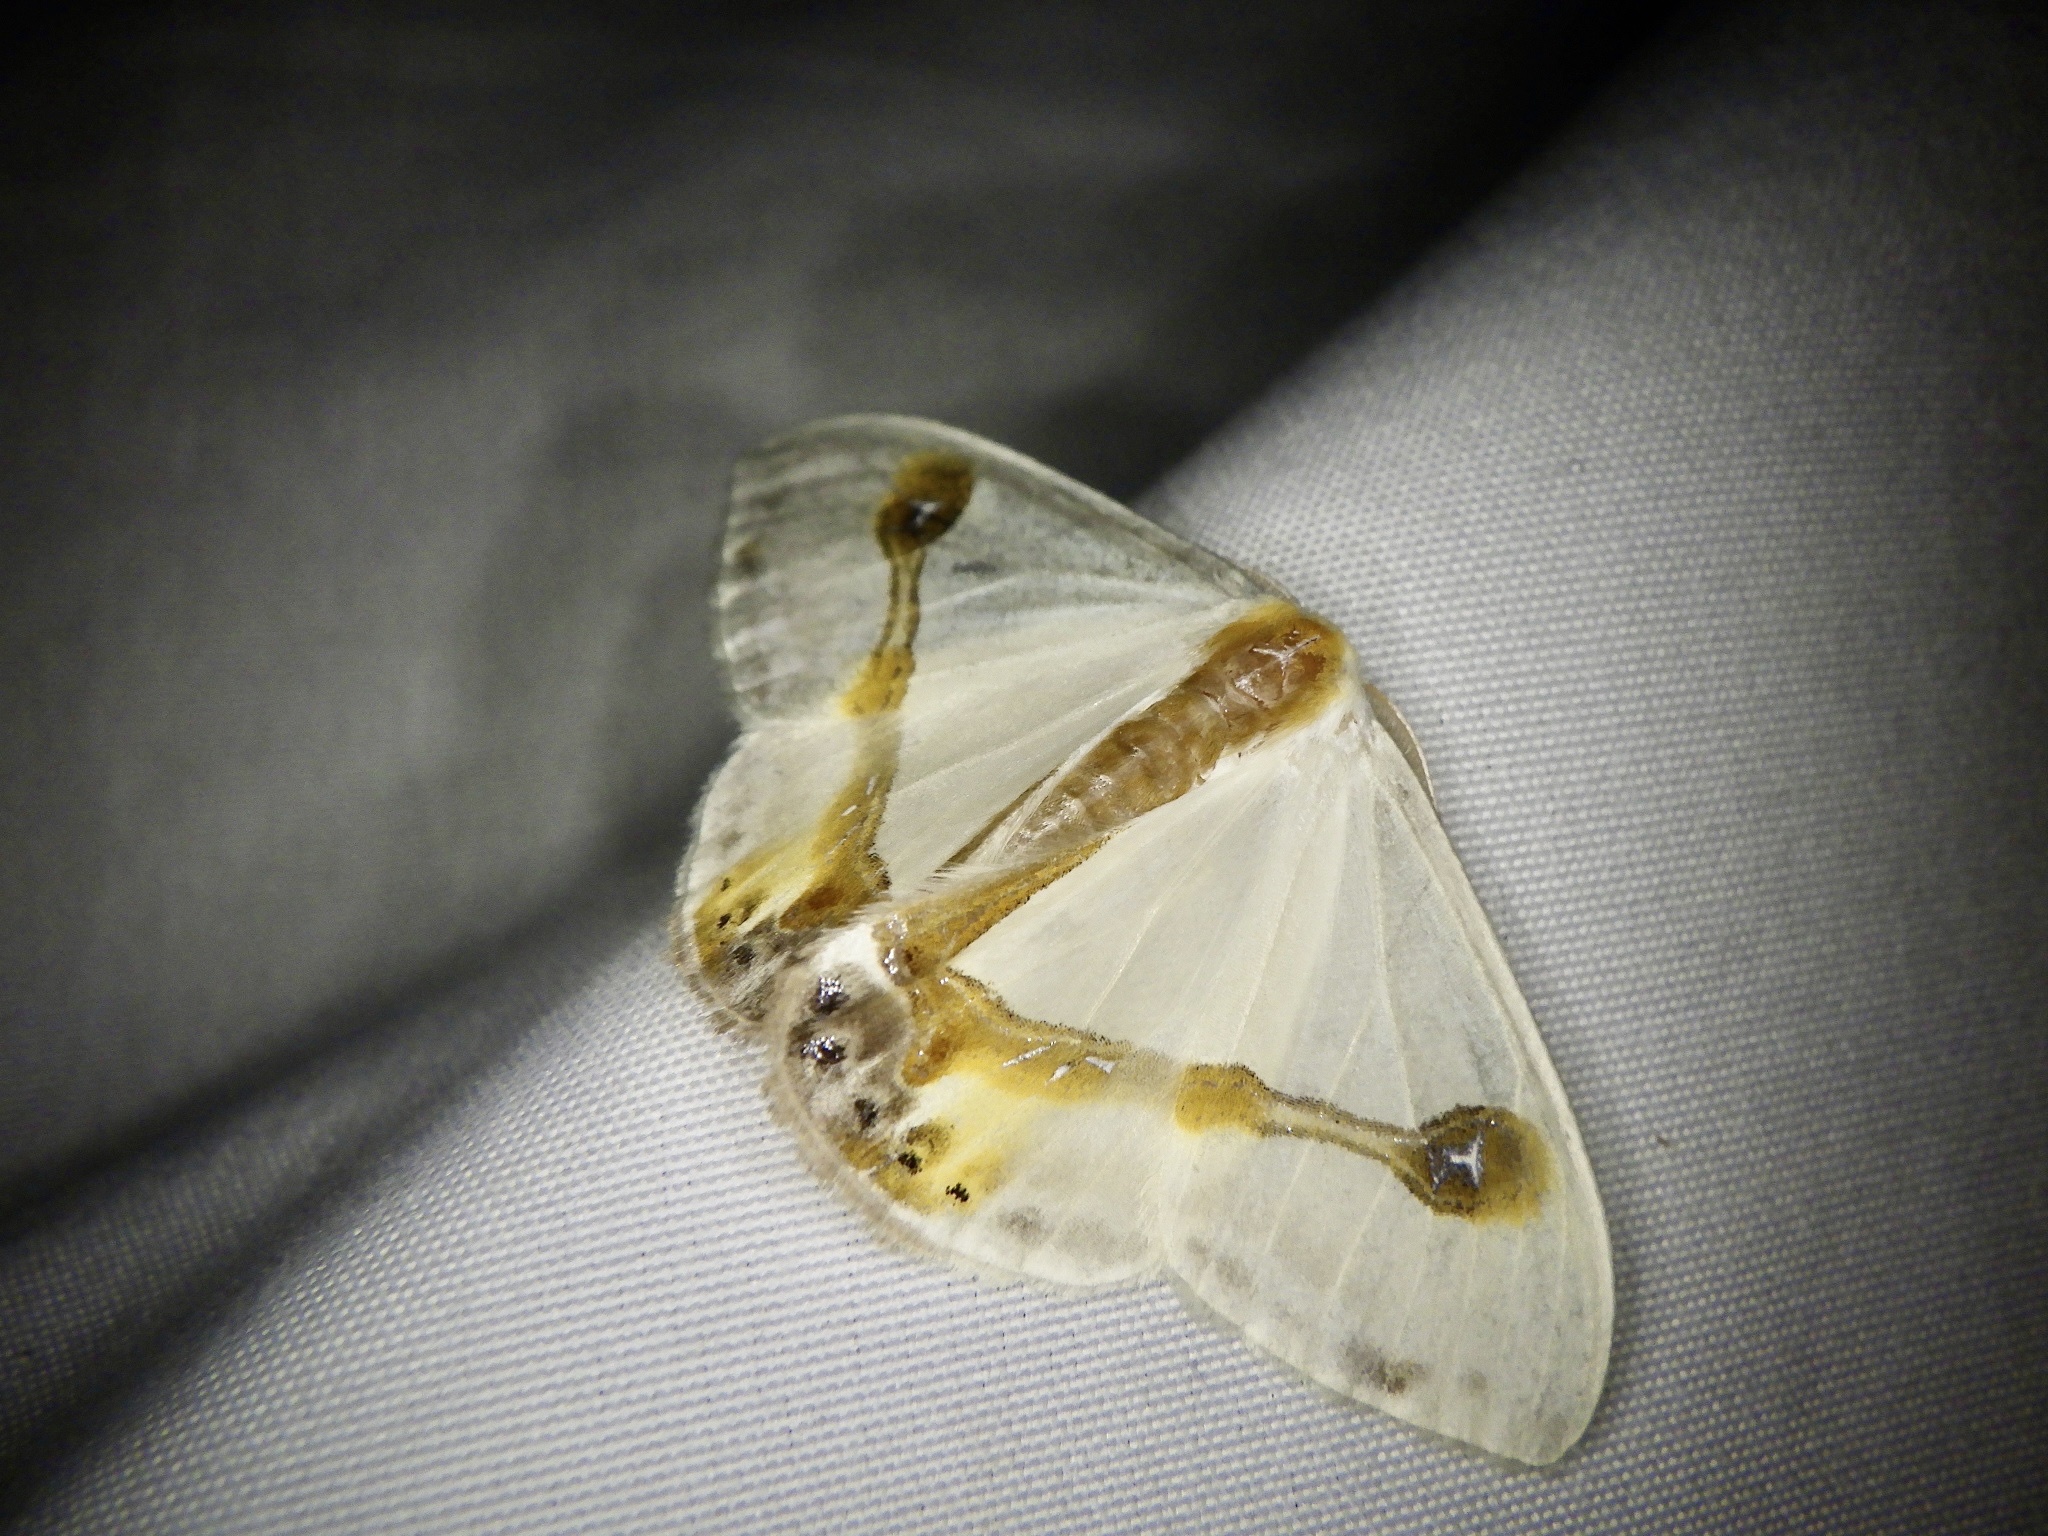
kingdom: Animalia
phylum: Arthropoda
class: Insecta
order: Lepidoptera
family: Drepanidae
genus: Macrocilix
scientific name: Macrocilix mysticata
